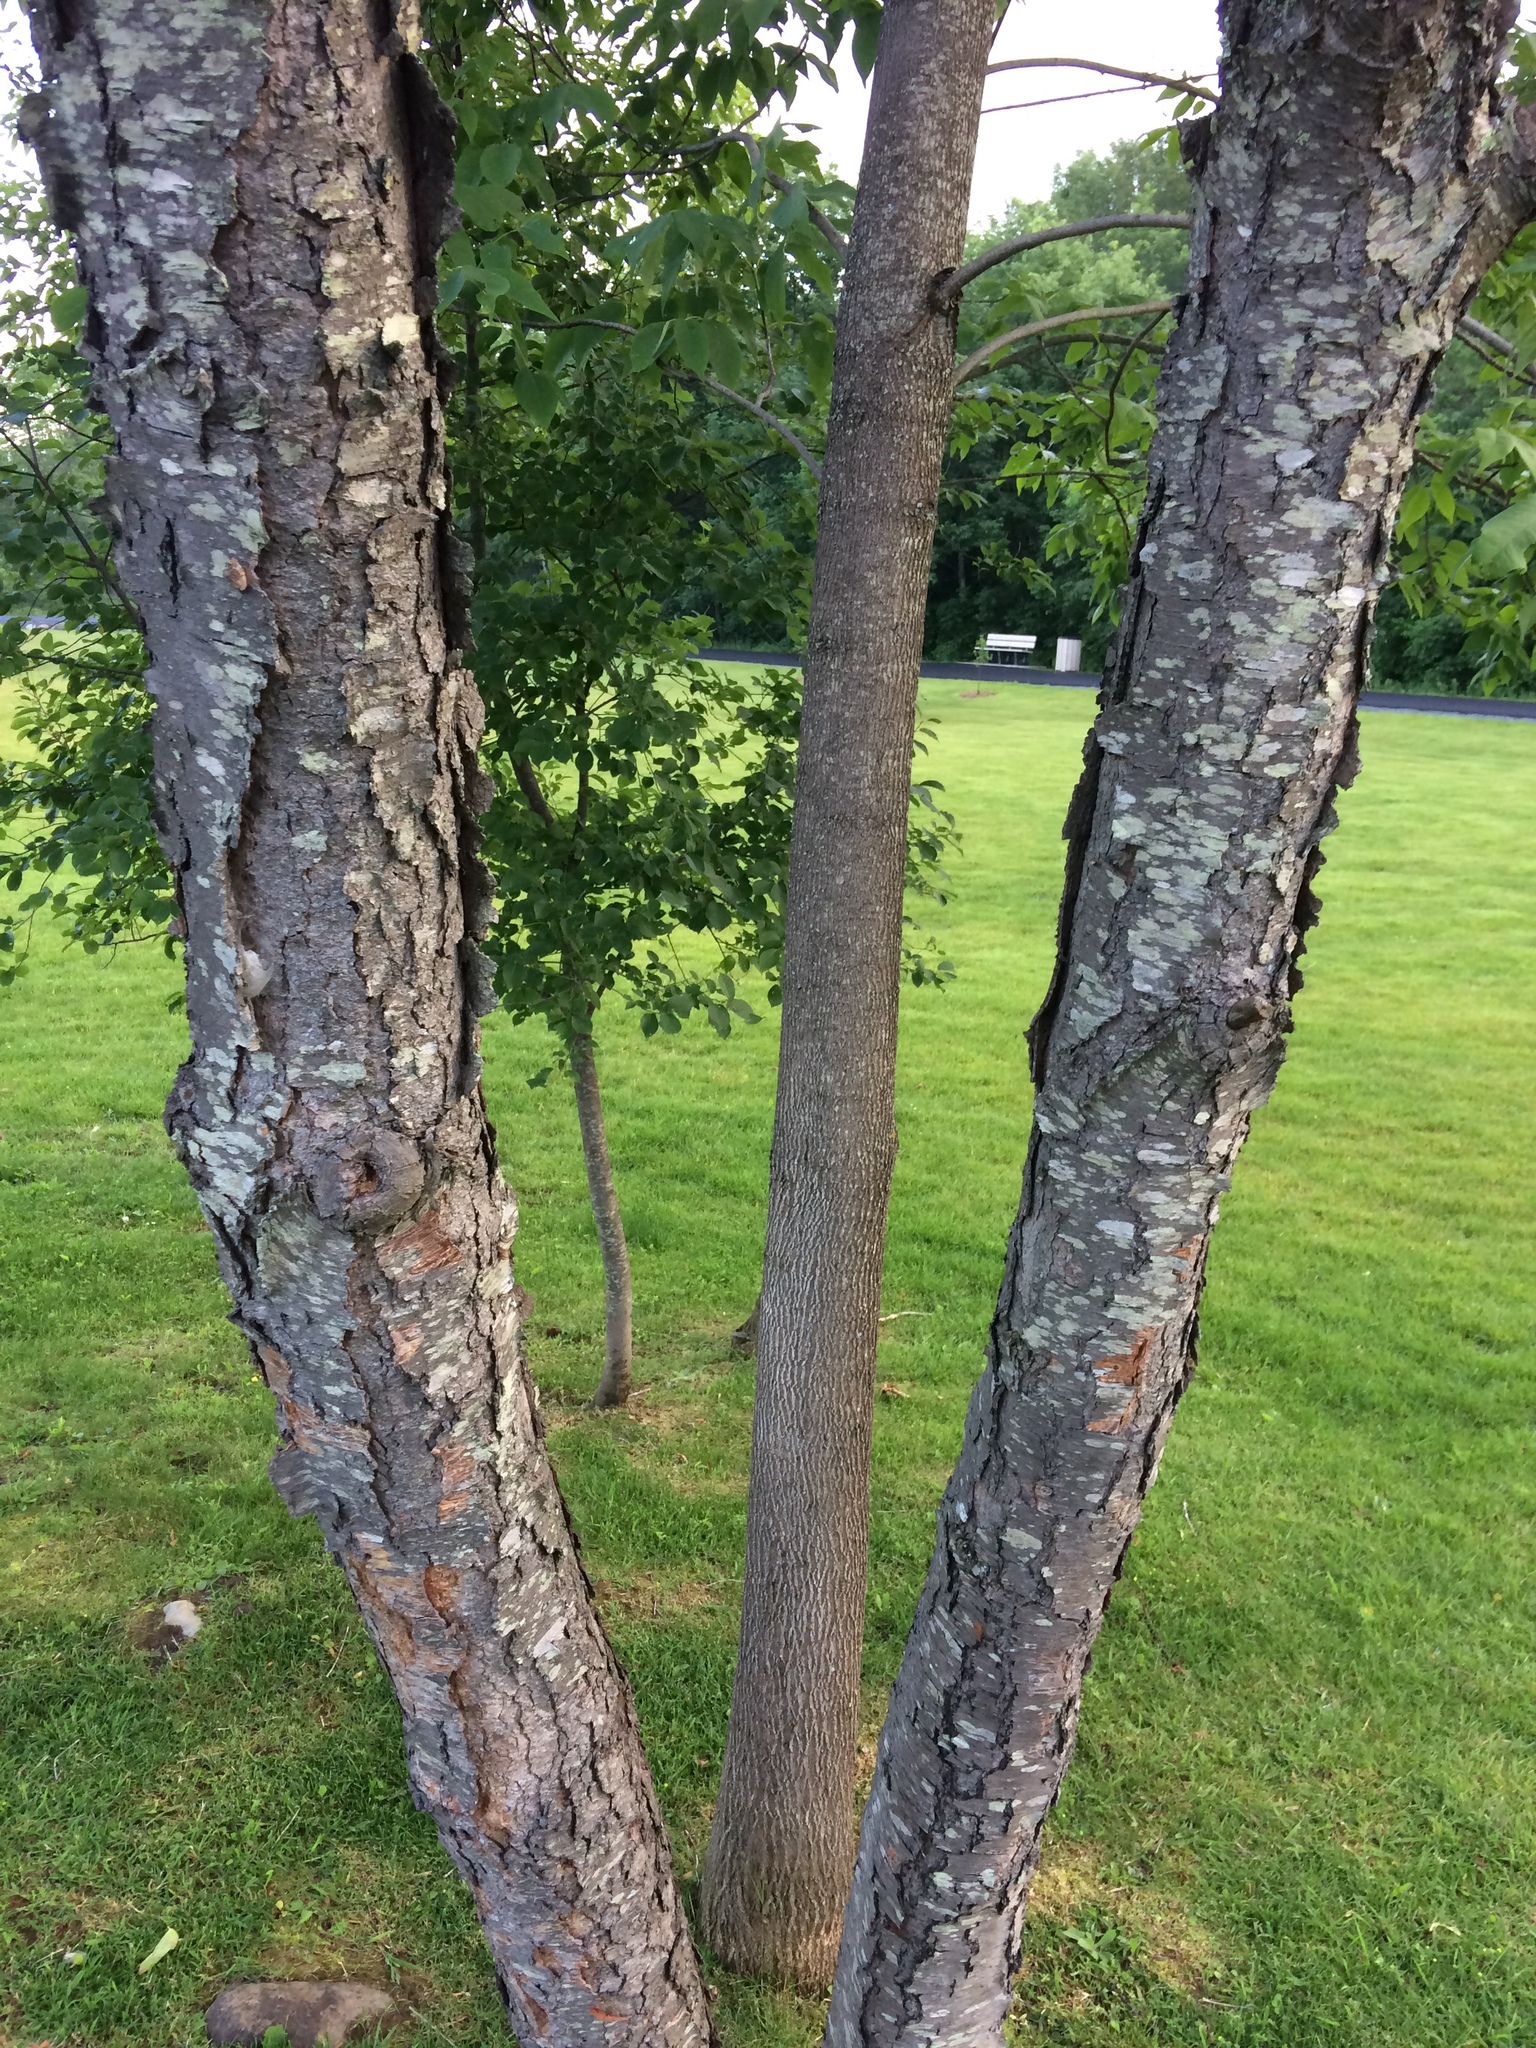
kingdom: Plantae
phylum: Tracheophyta
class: Magnoliopsida
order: Rosales
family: Rosaceae
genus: Prunus
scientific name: Prunus serotina
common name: Black cherry
